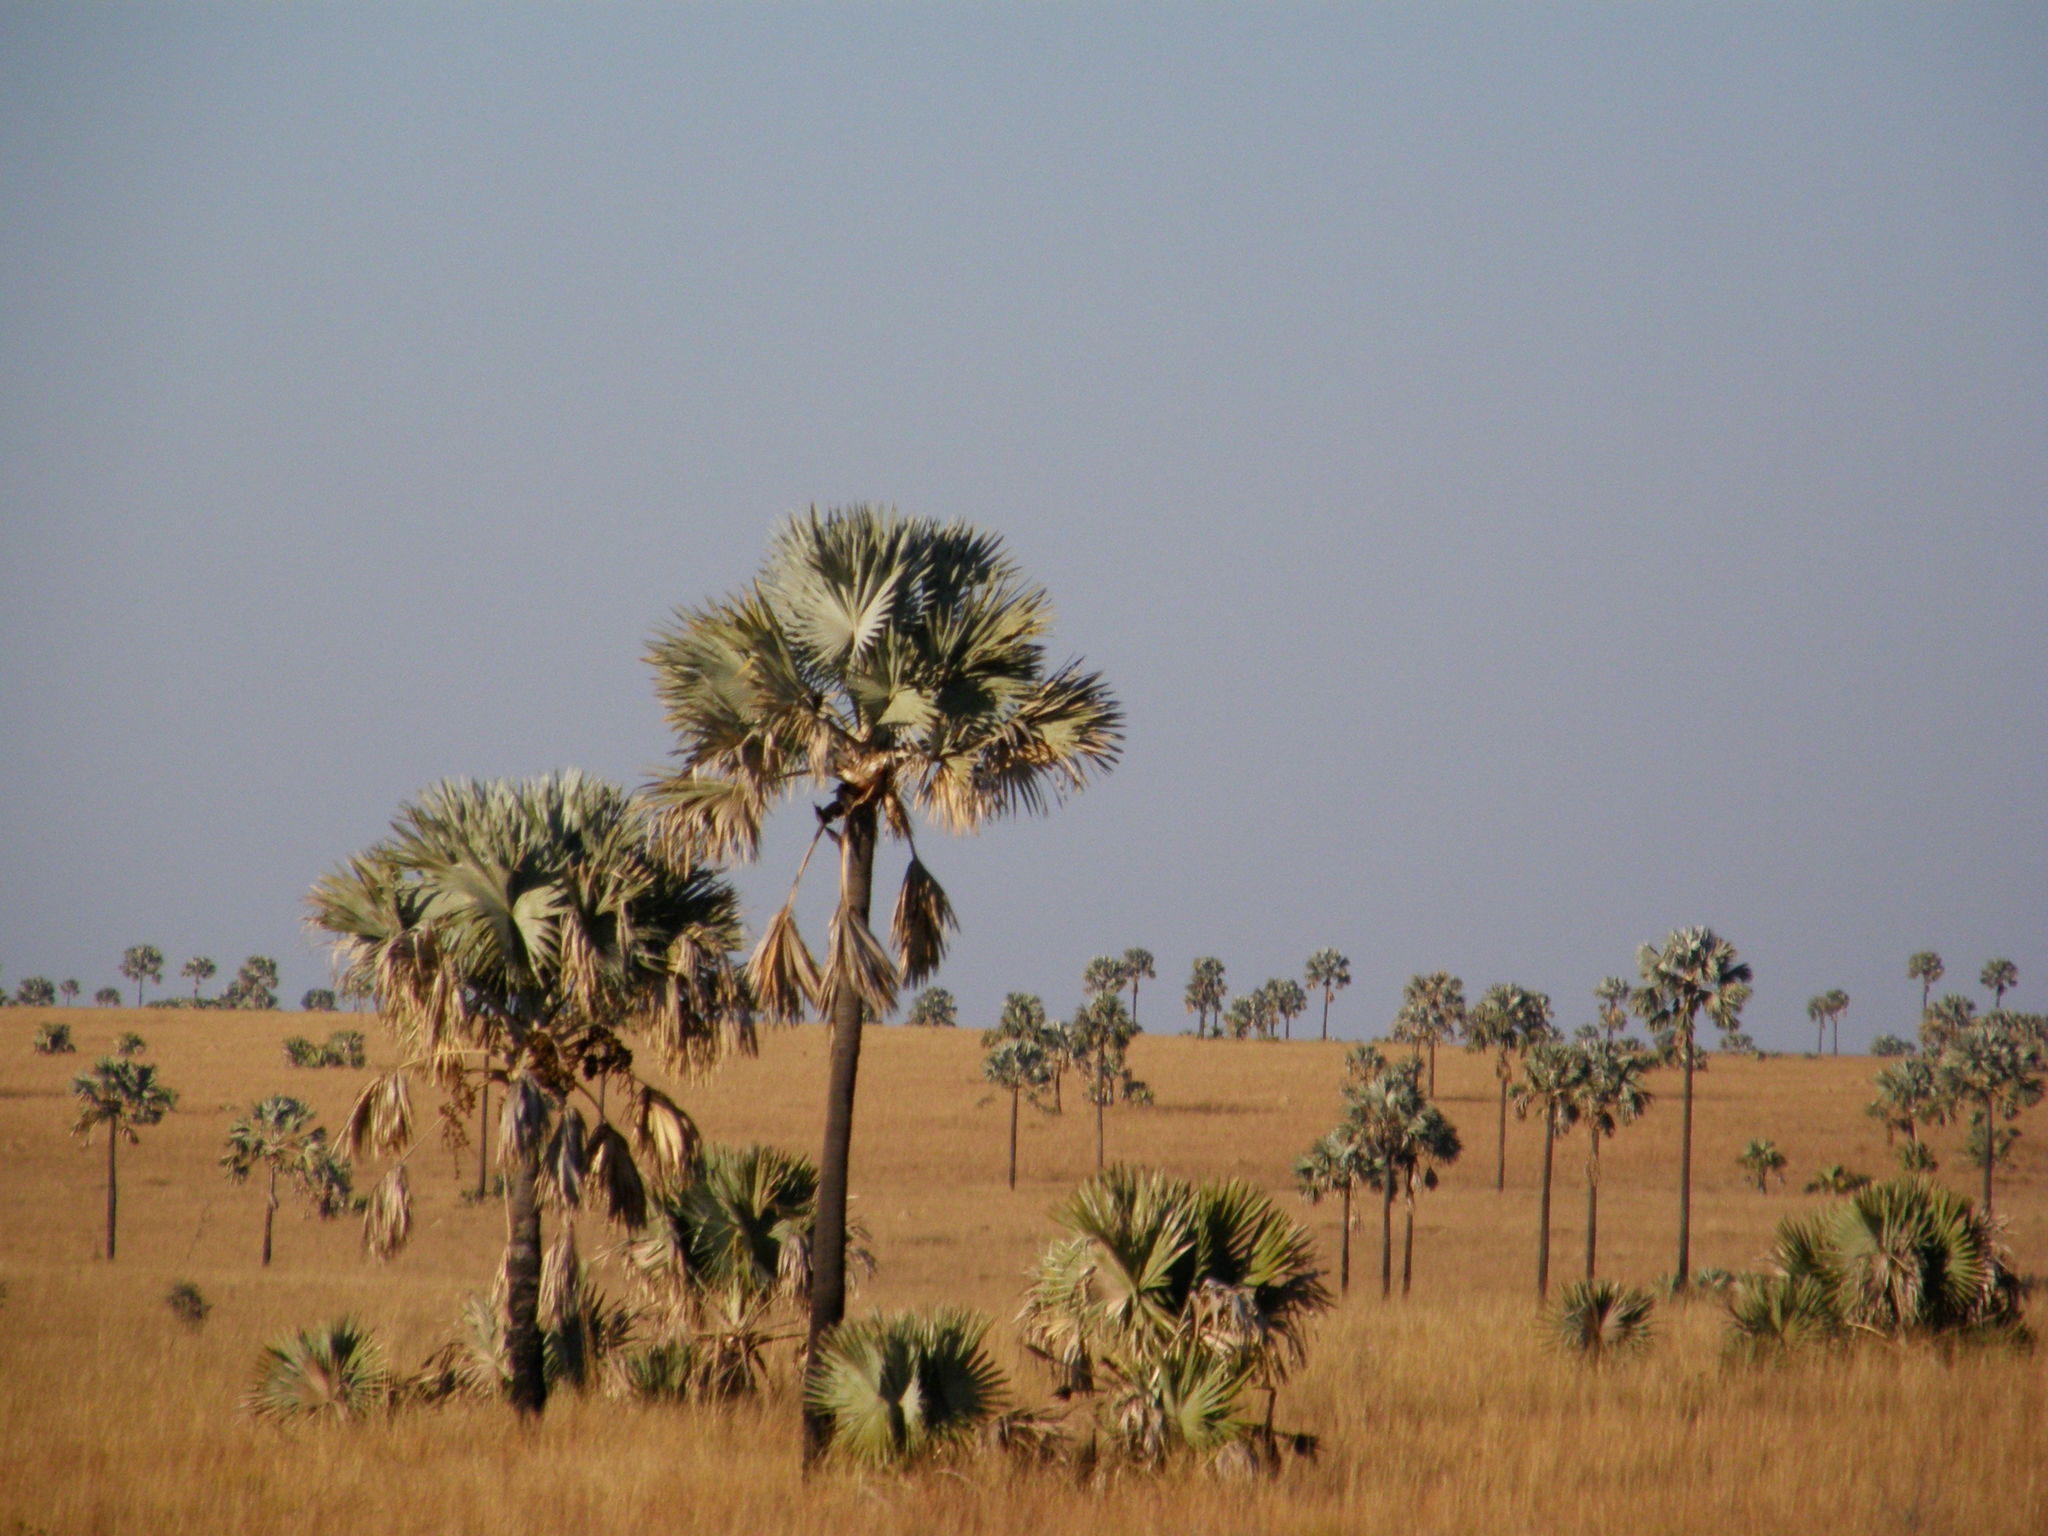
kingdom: Plantae
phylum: Tracheophyta
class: Liliopsida
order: Arecales
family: Arecaceae
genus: Bismarckia
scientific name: Bismarckia nobilis
